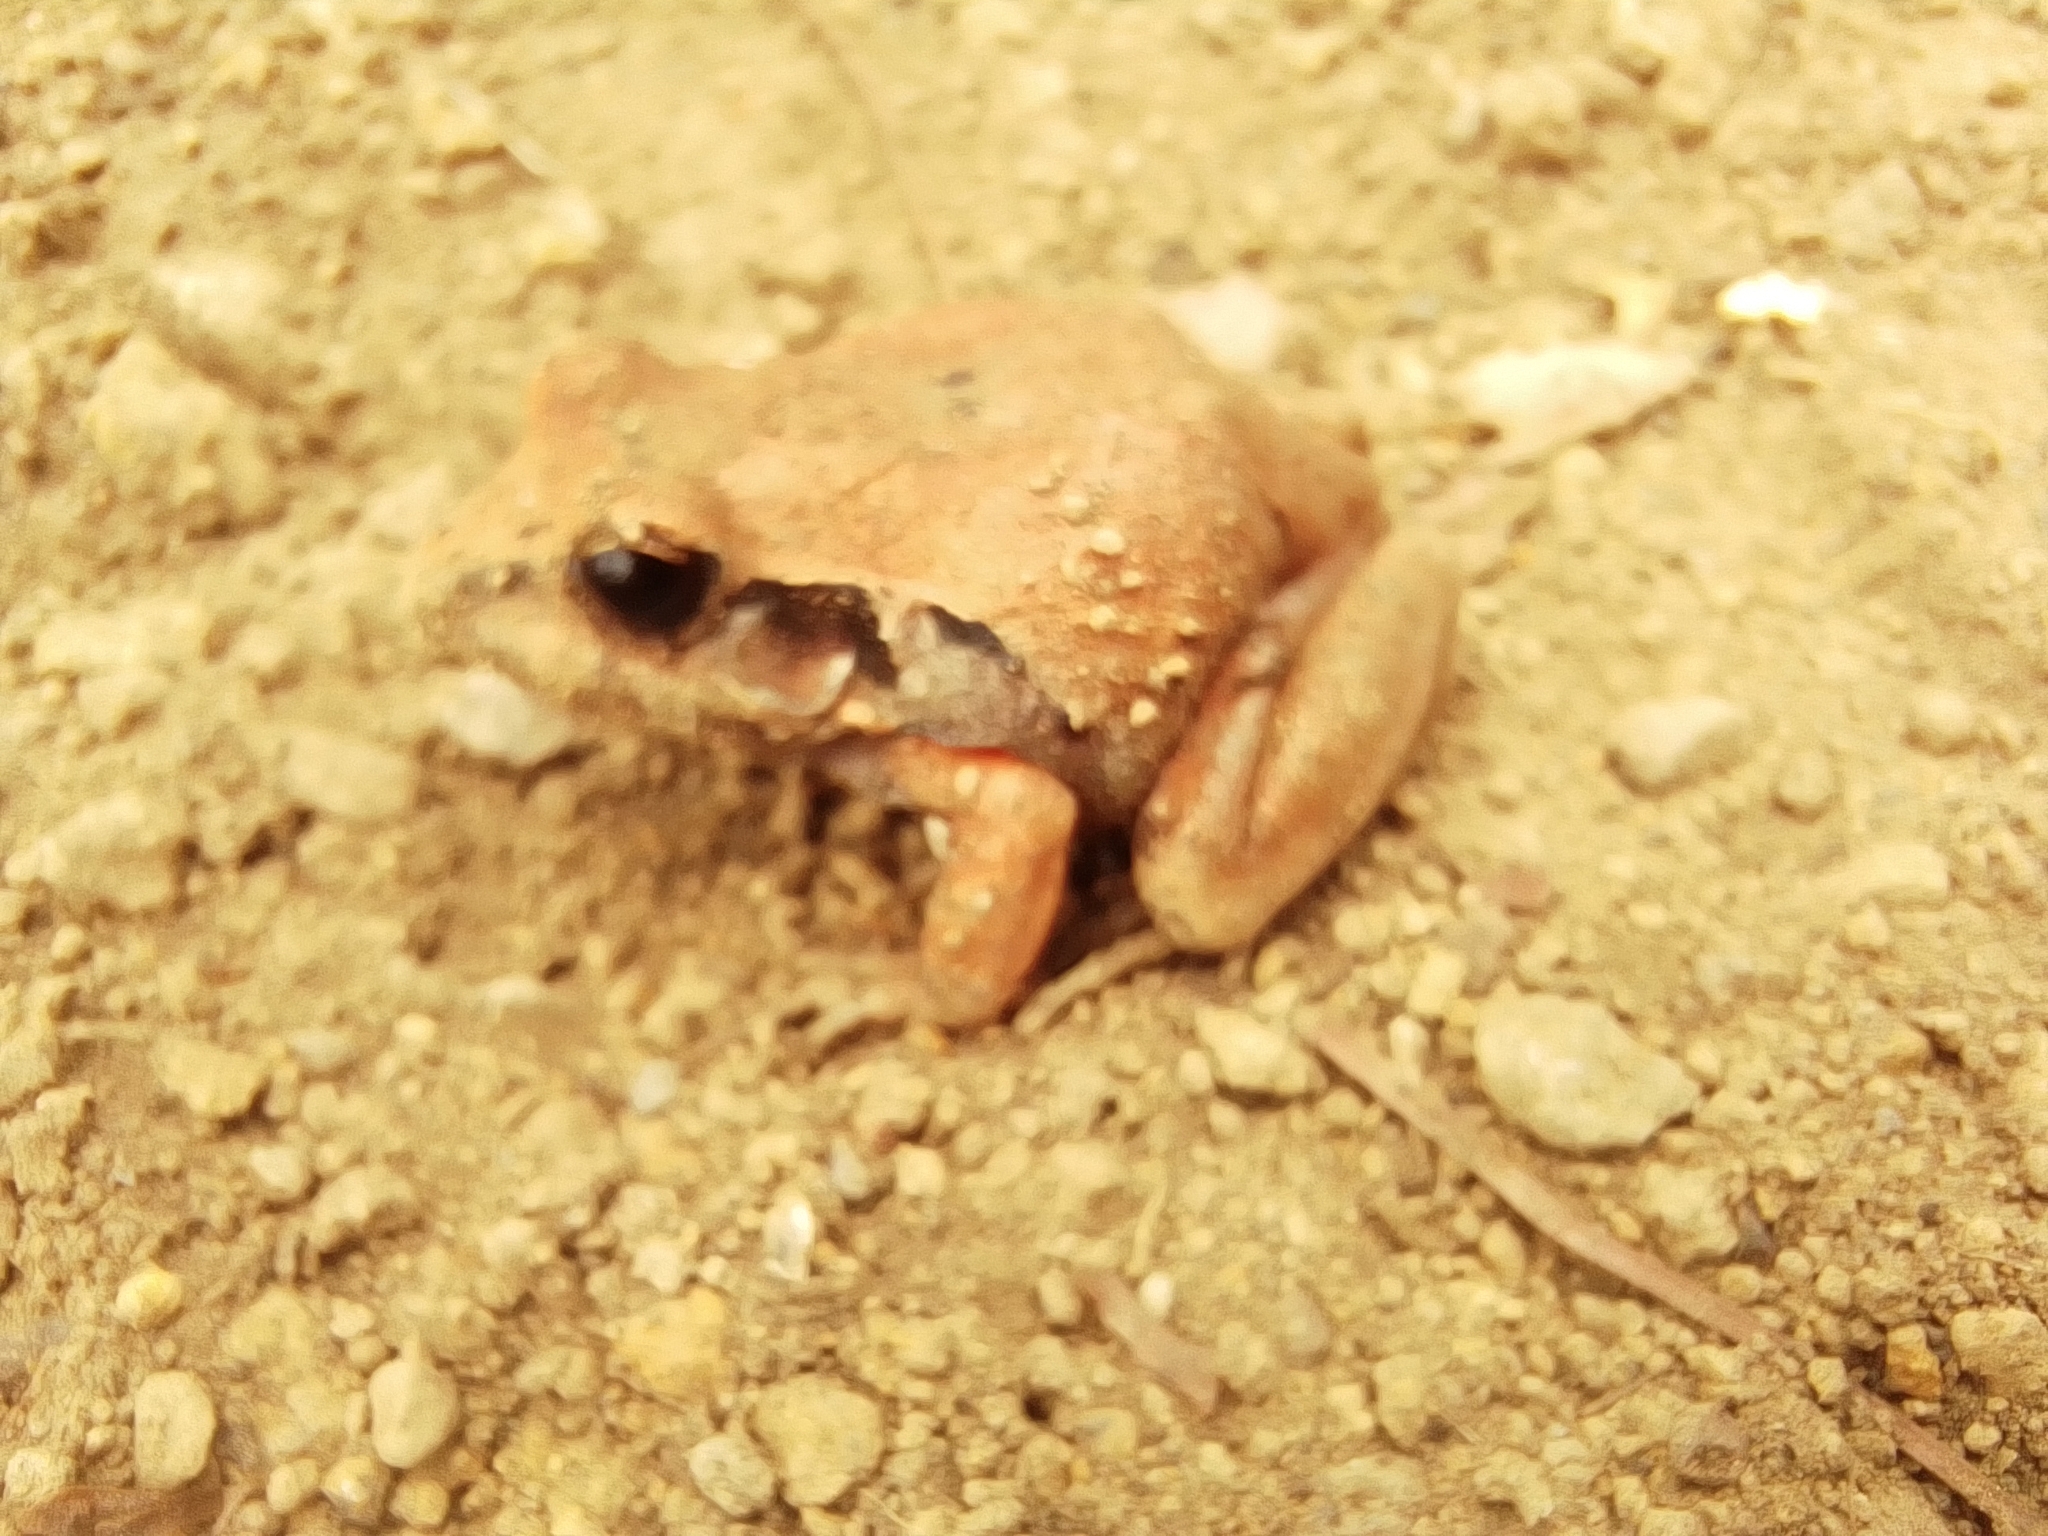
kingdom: Animalia
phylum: Chordata
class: Amphibia
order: Anura
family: Craugastoridae
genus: Craugastor
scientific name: Craugastor occidentalis
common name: Taylor's barking frog
